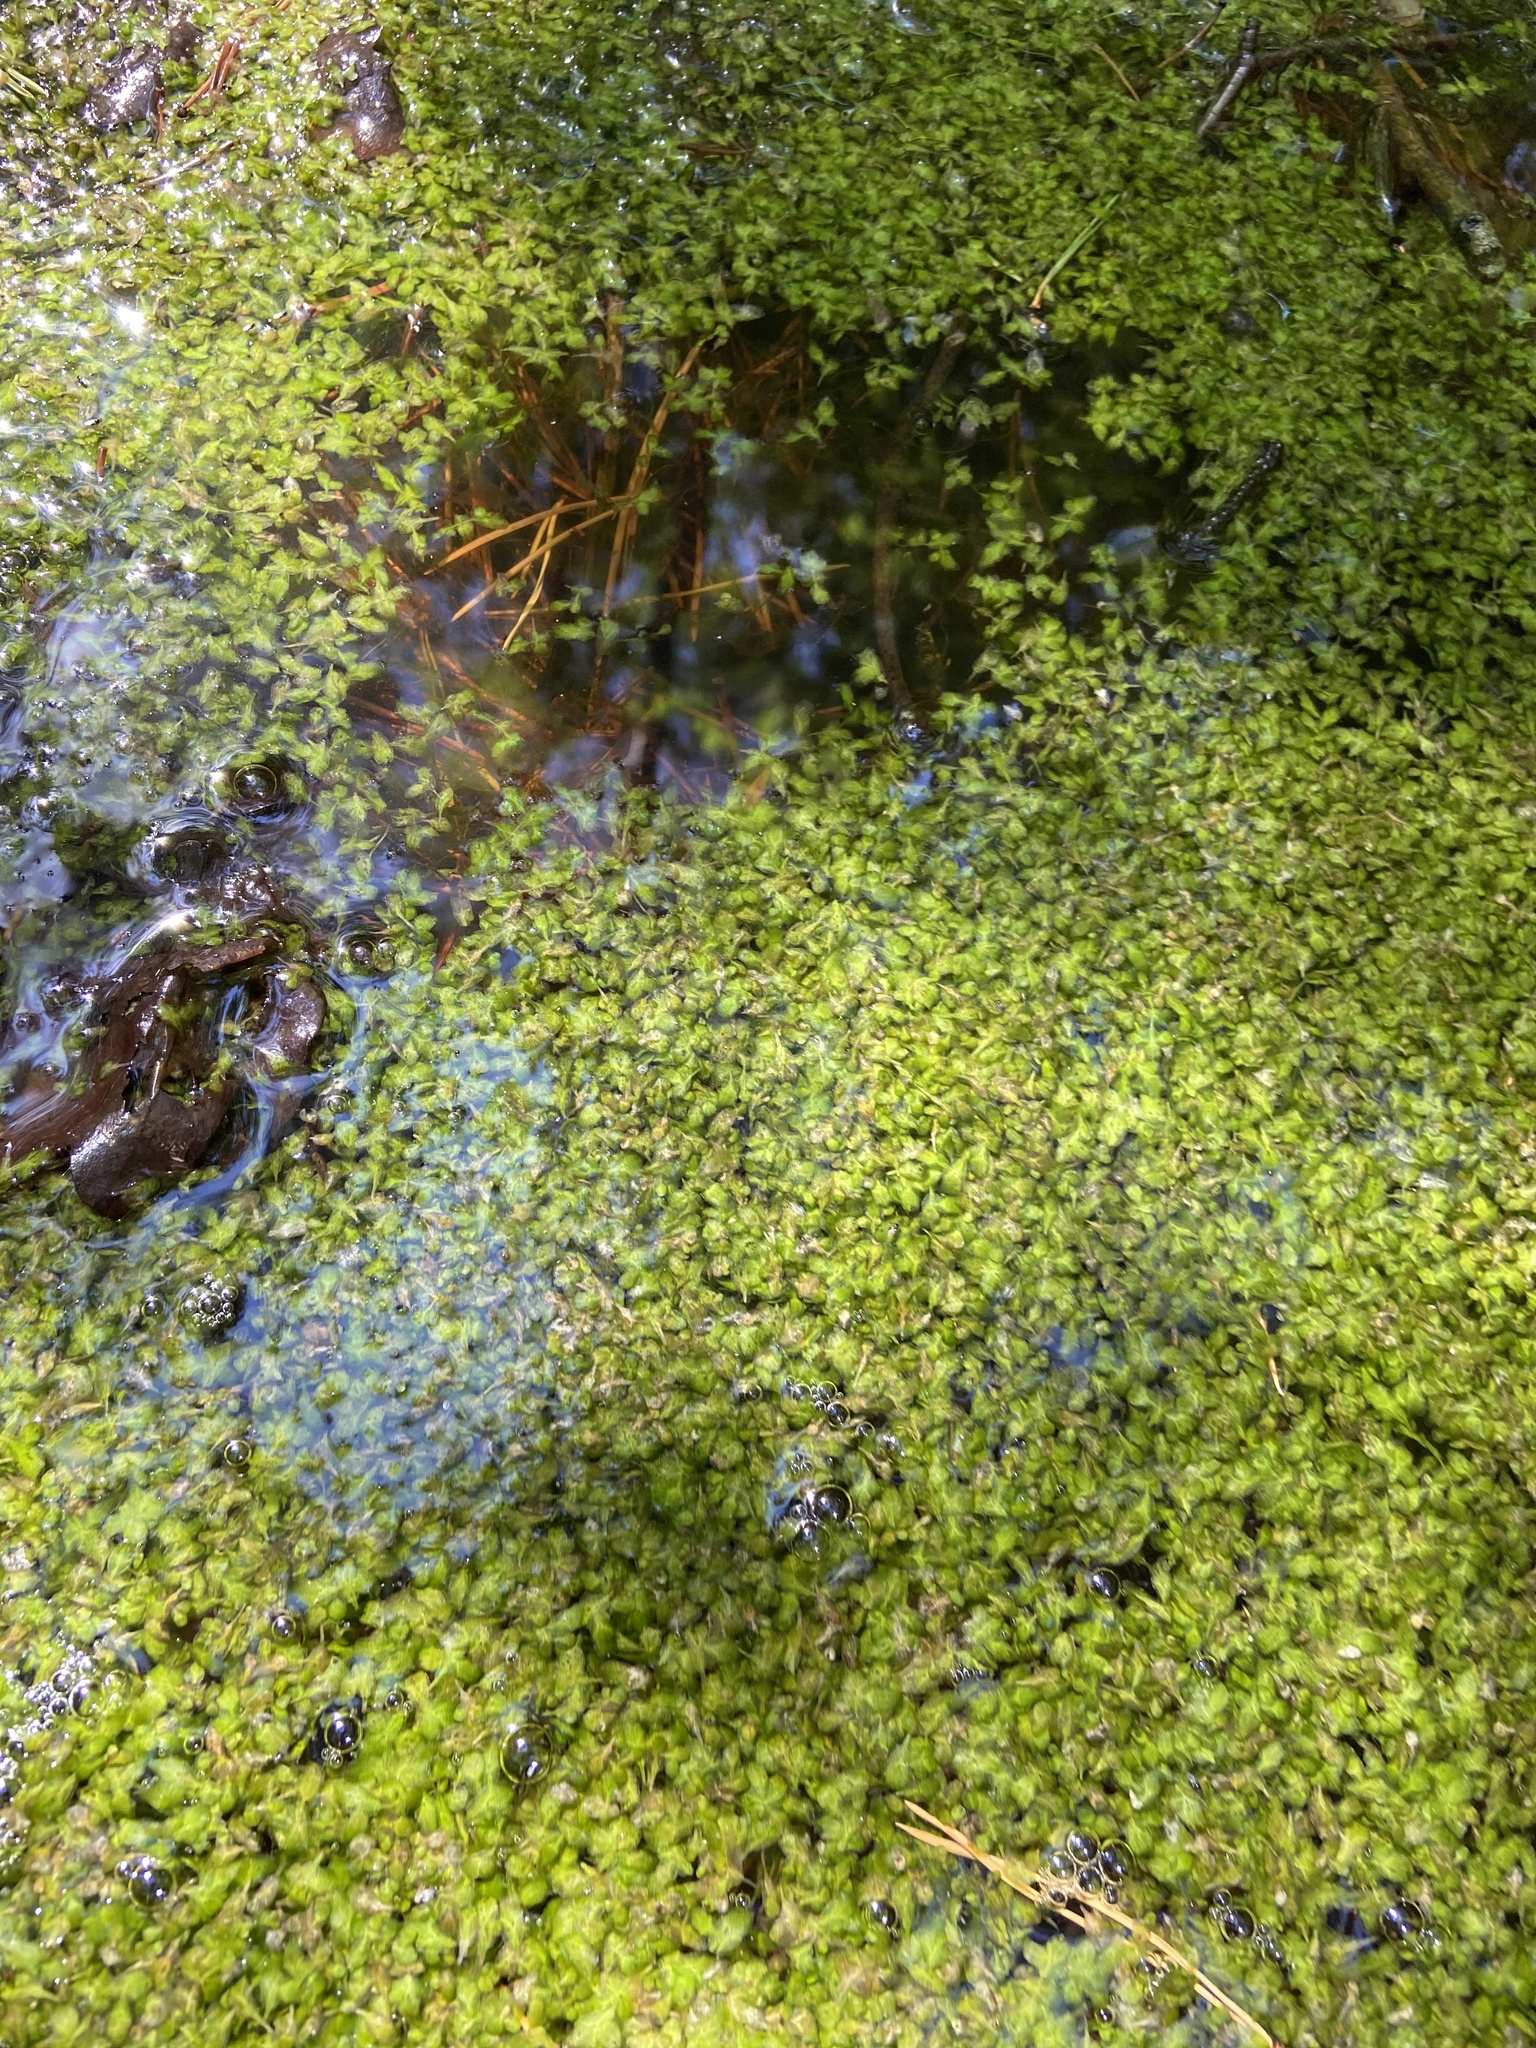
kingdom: Plantae
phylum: Tracheophyta
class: Liliopsida
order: Alismatales
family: Araceae
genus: Lemna
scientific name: Lemna trisulca
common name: Ivy-leaved duckweed
